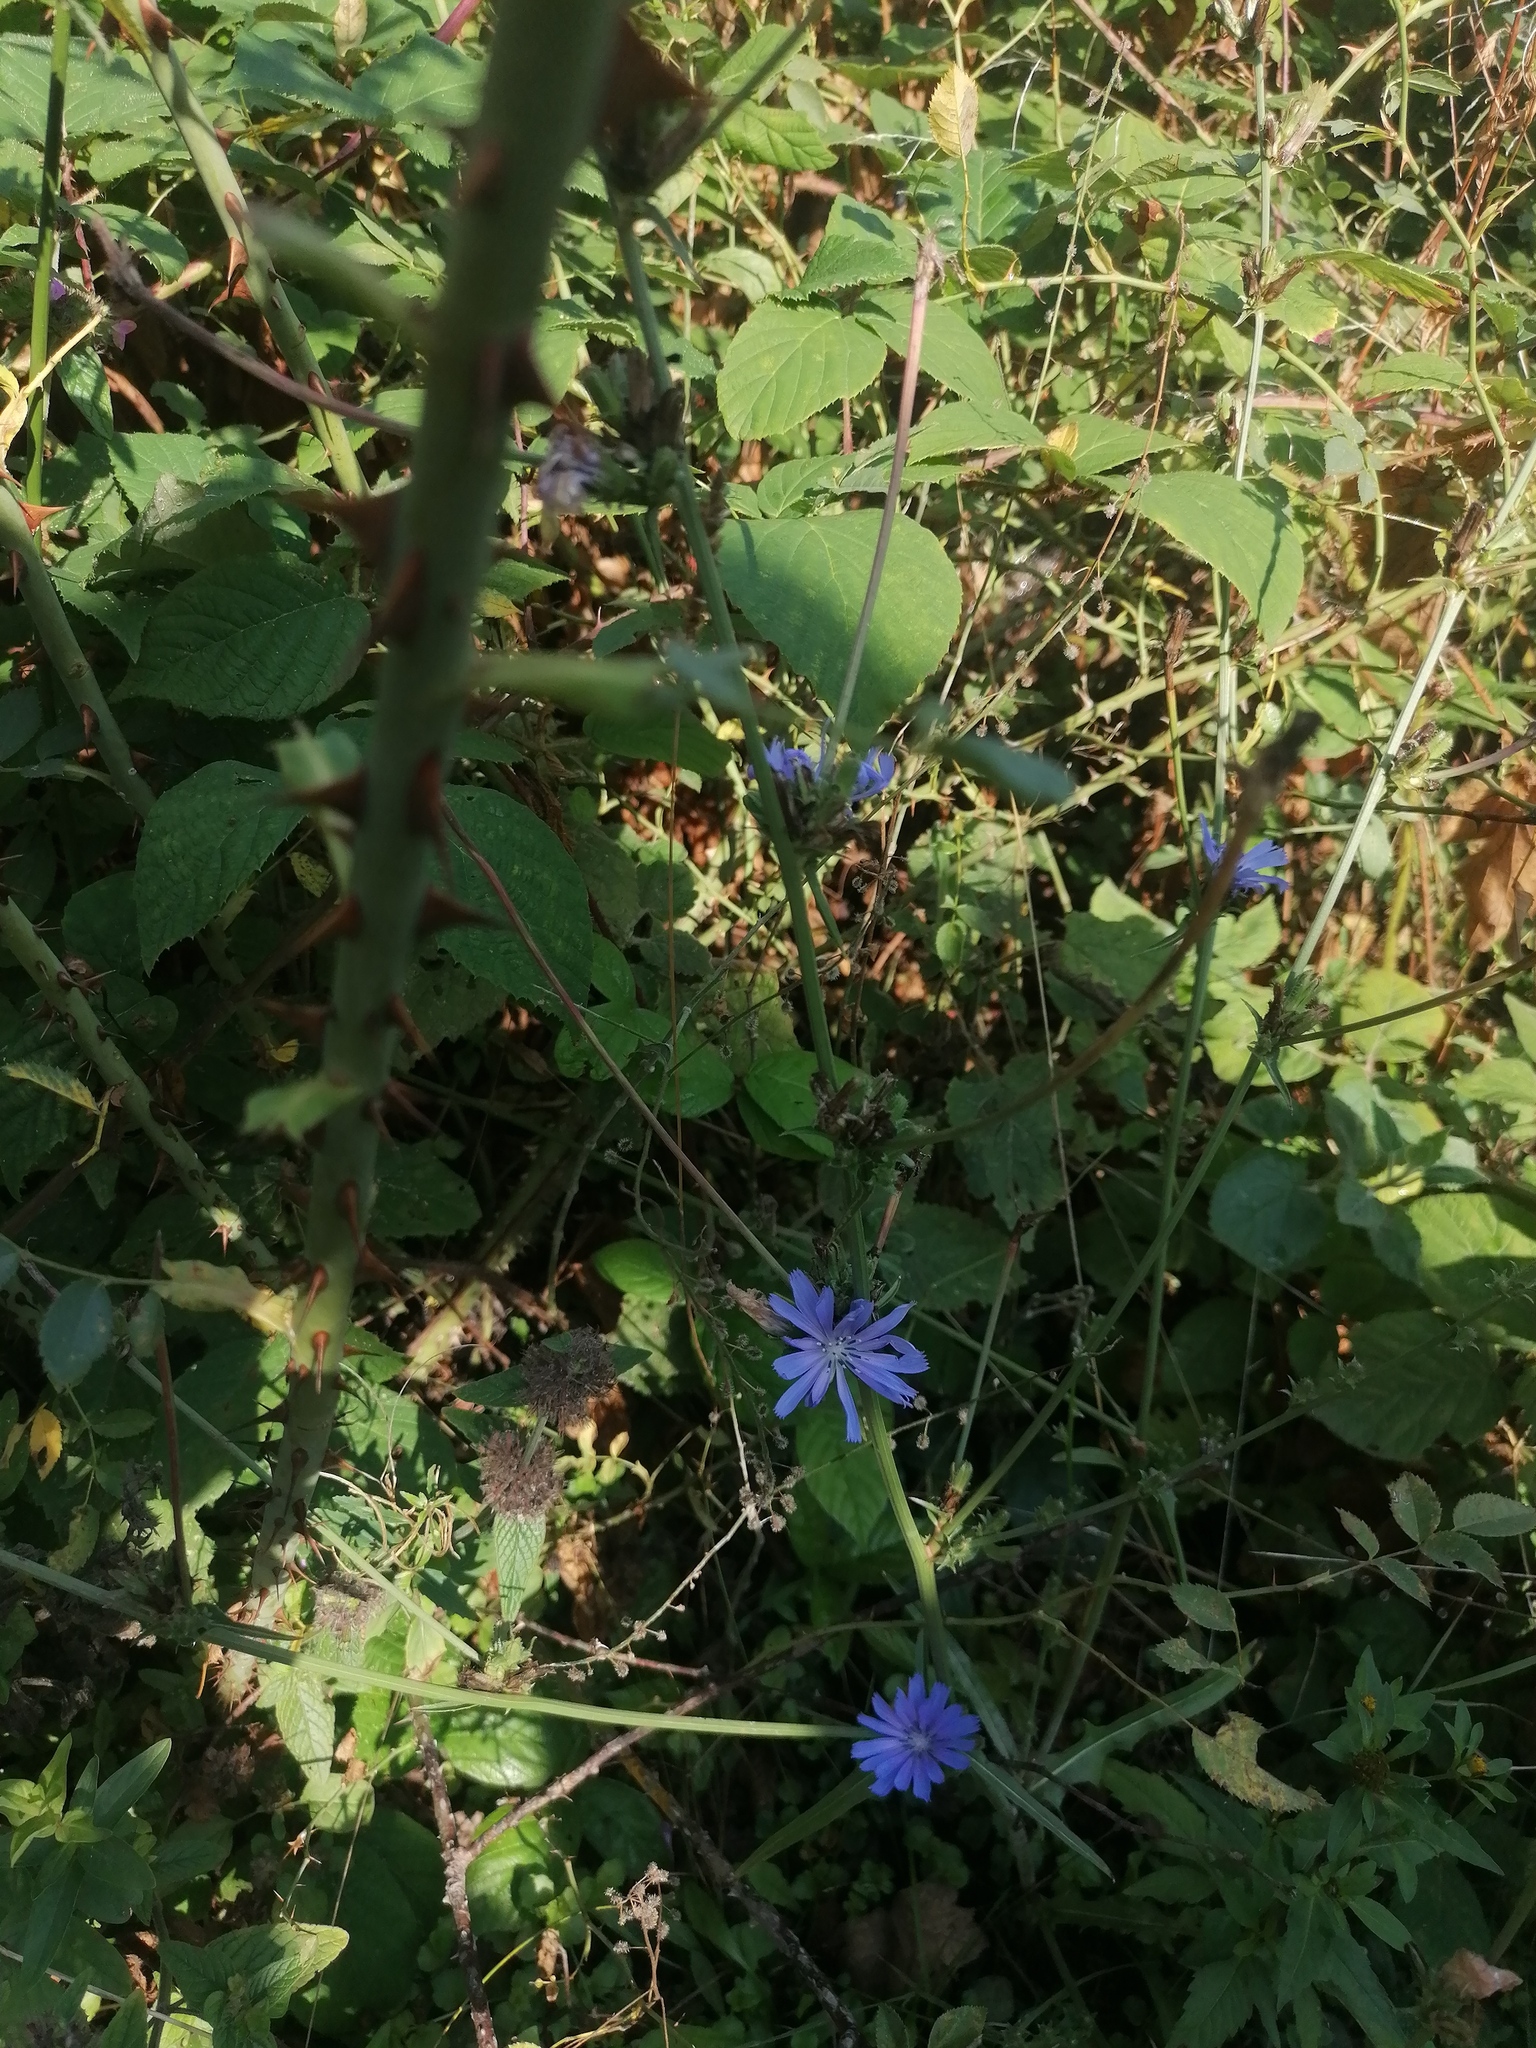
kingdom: Plantae
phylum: Tracheophyta
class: Magnoliopsida
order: Asterales
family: Asteraceae
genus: Cichorium
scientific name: Cichorium intybus
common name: Chicory
